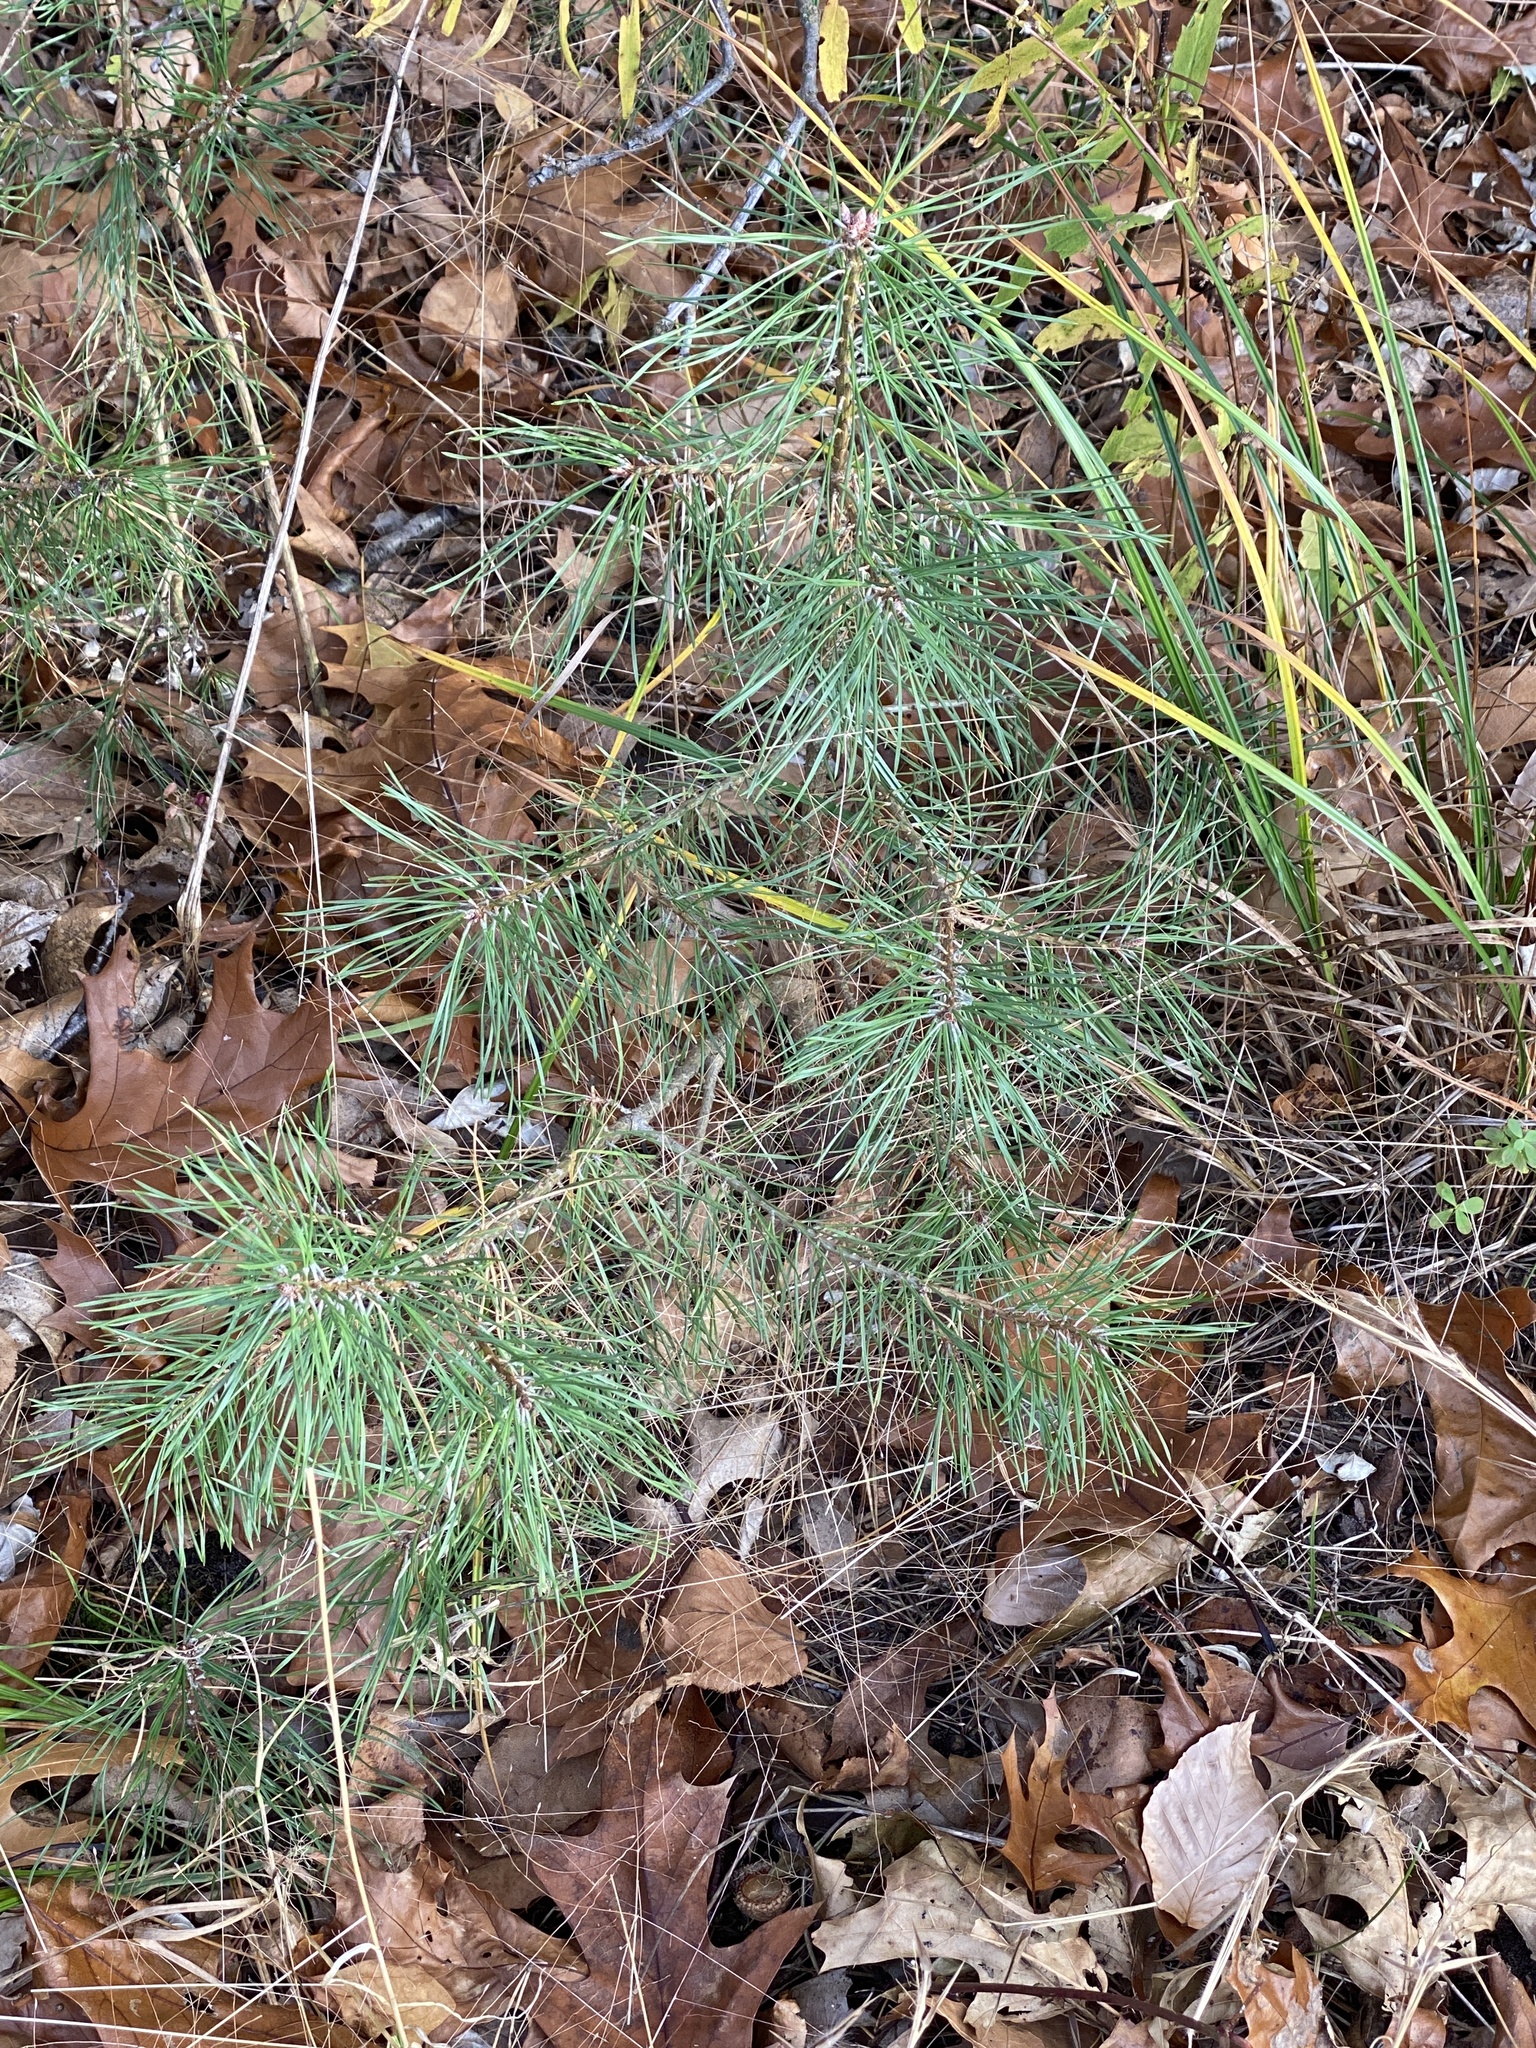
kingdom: Plantae
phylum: Tracheophyta
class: Pinopsida
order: Pinales
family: Pinaceae
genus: Pinus
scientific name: Pinus strobus
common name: Weymouth pine
